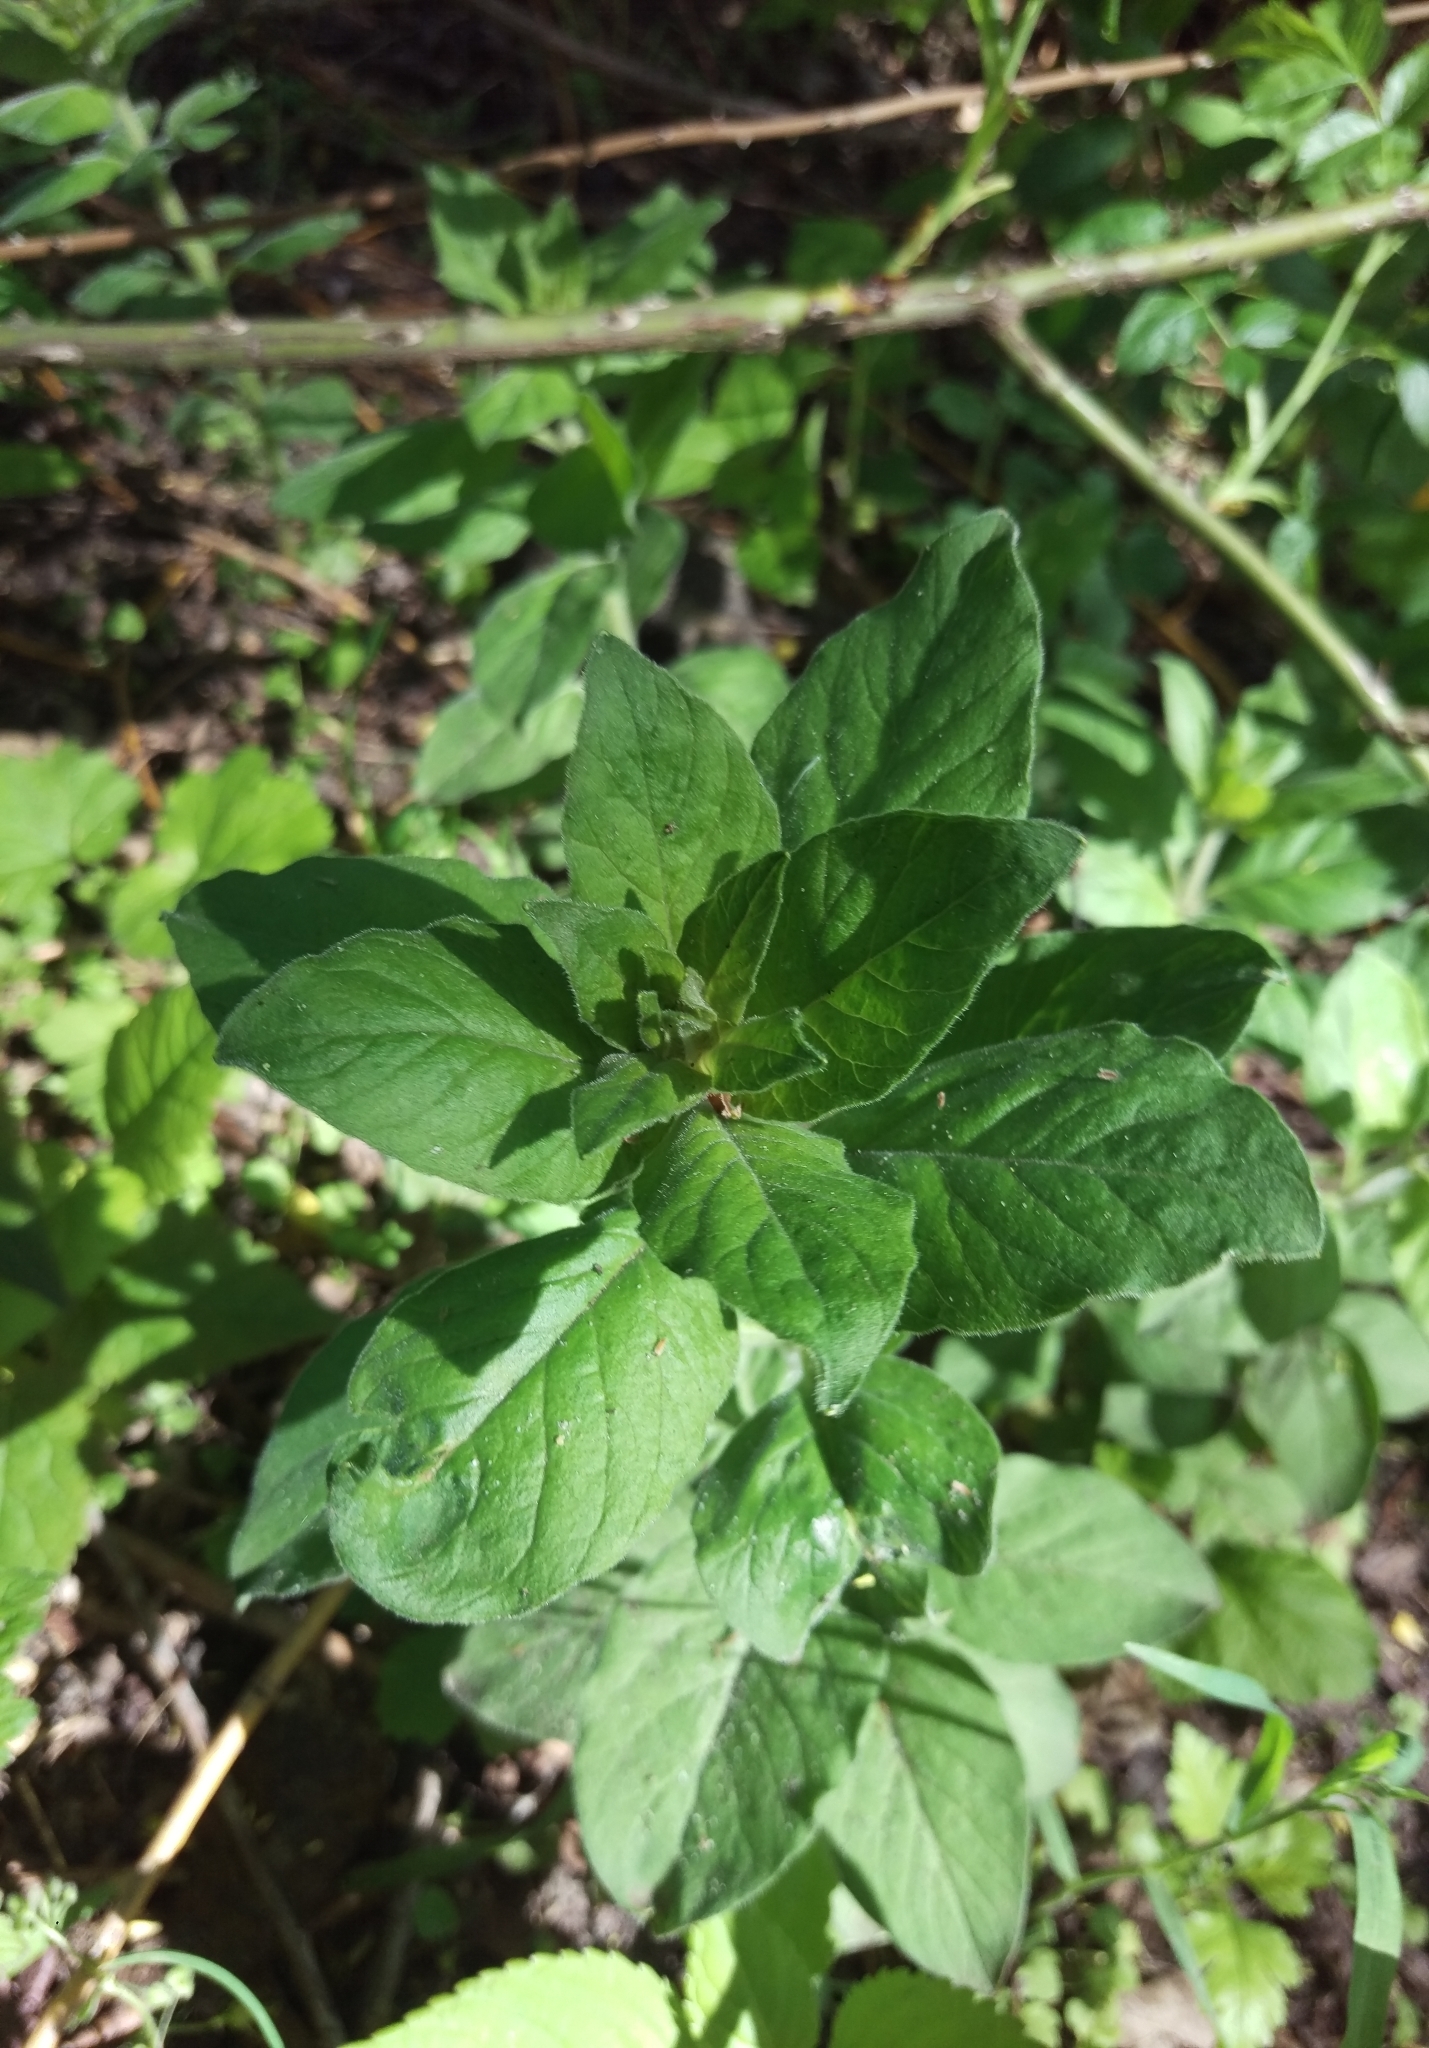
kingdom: Plantae
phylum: Tracheophyta
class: Magnoliopsida
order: Ericales
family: Primulaceae
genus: Lysimachia
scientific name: Lysimachia punctata
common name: Dotted loosestrife
